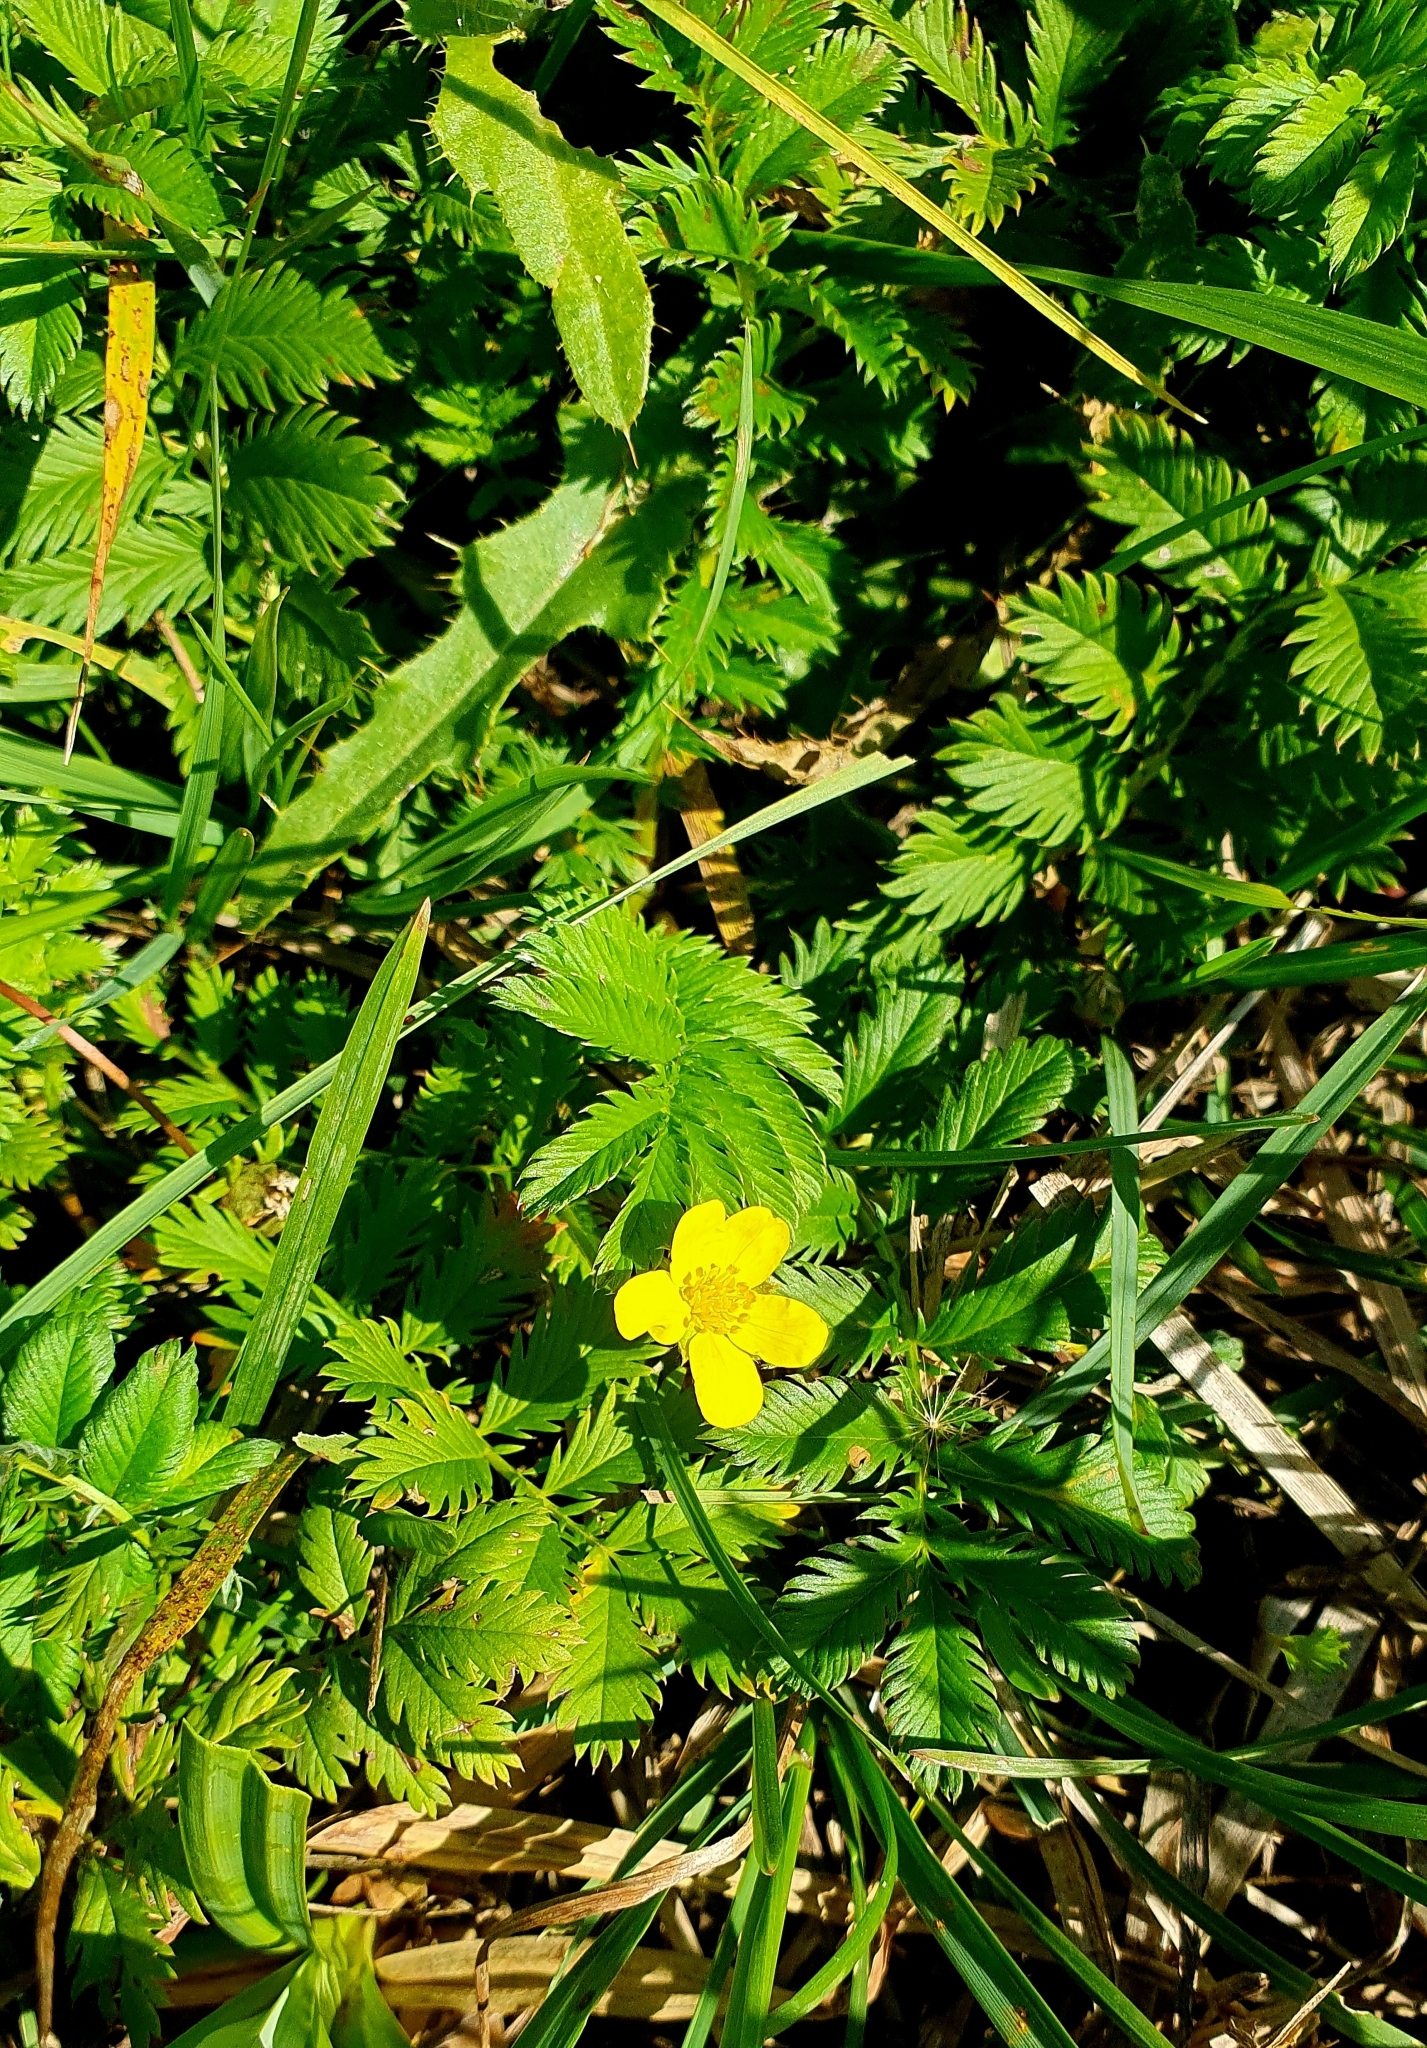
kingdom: Plantae
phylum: Tracheophyta
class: Magnoliopsida
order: Rosales
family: Rosaceae
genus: Argentina
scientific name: Argentina anserina
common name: Common silverweed
